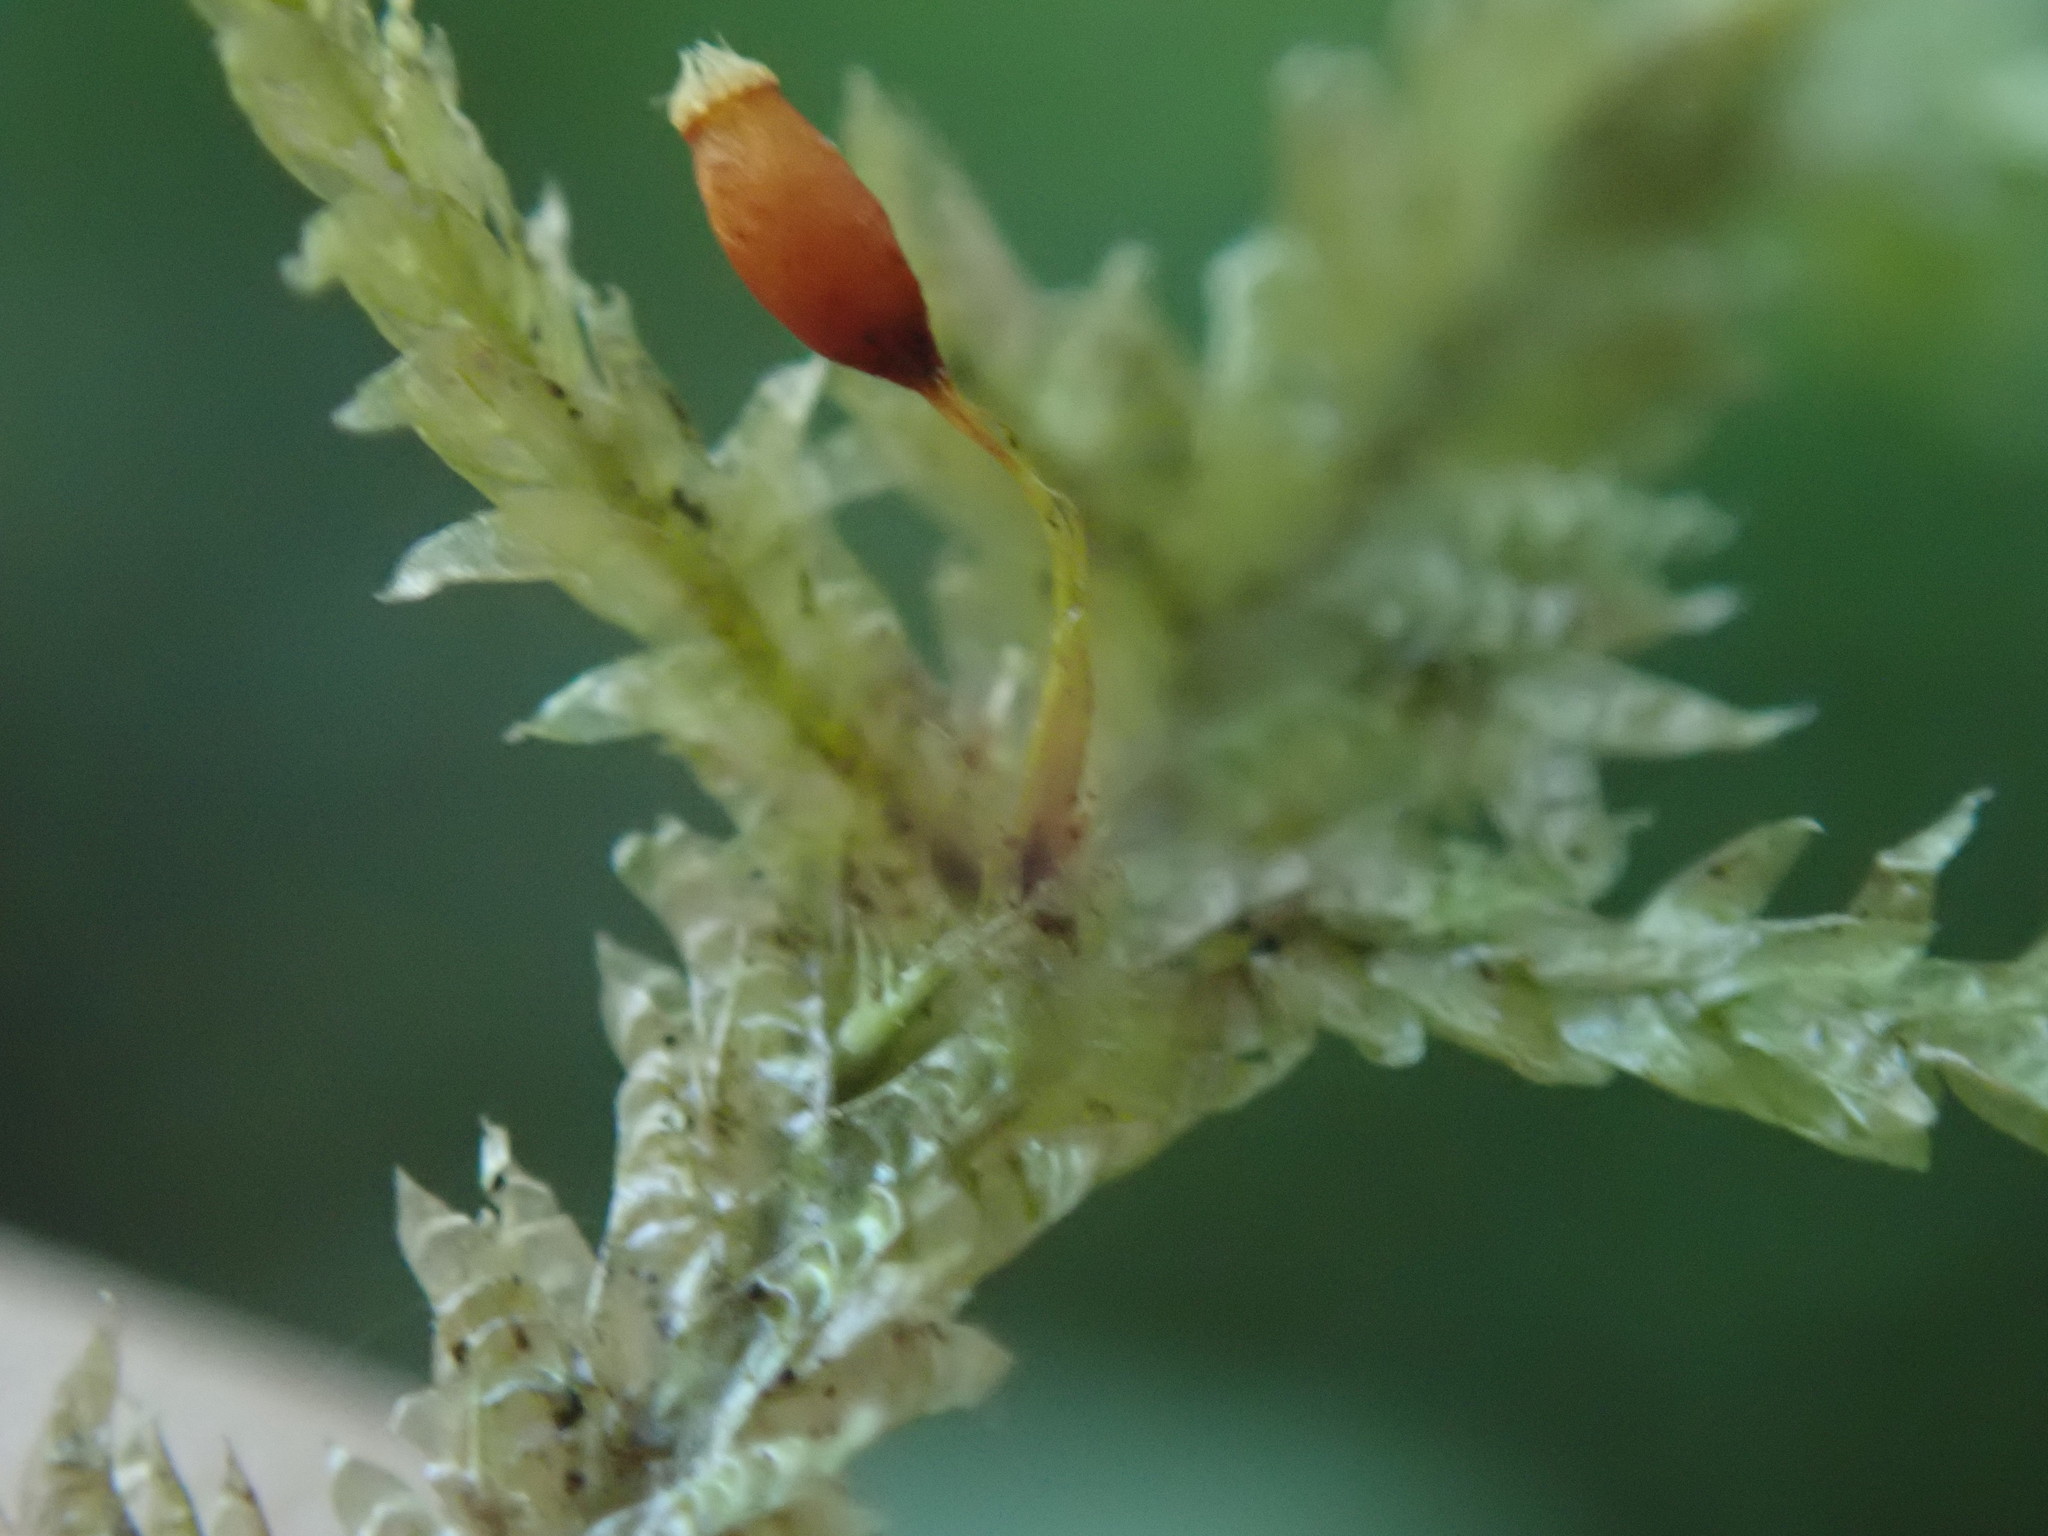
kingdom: Plantae
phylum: Bryophyta
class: Bryopsida
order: Hypnales
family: Neckeraceae
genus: Neckera
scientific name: Neckera douglasii
